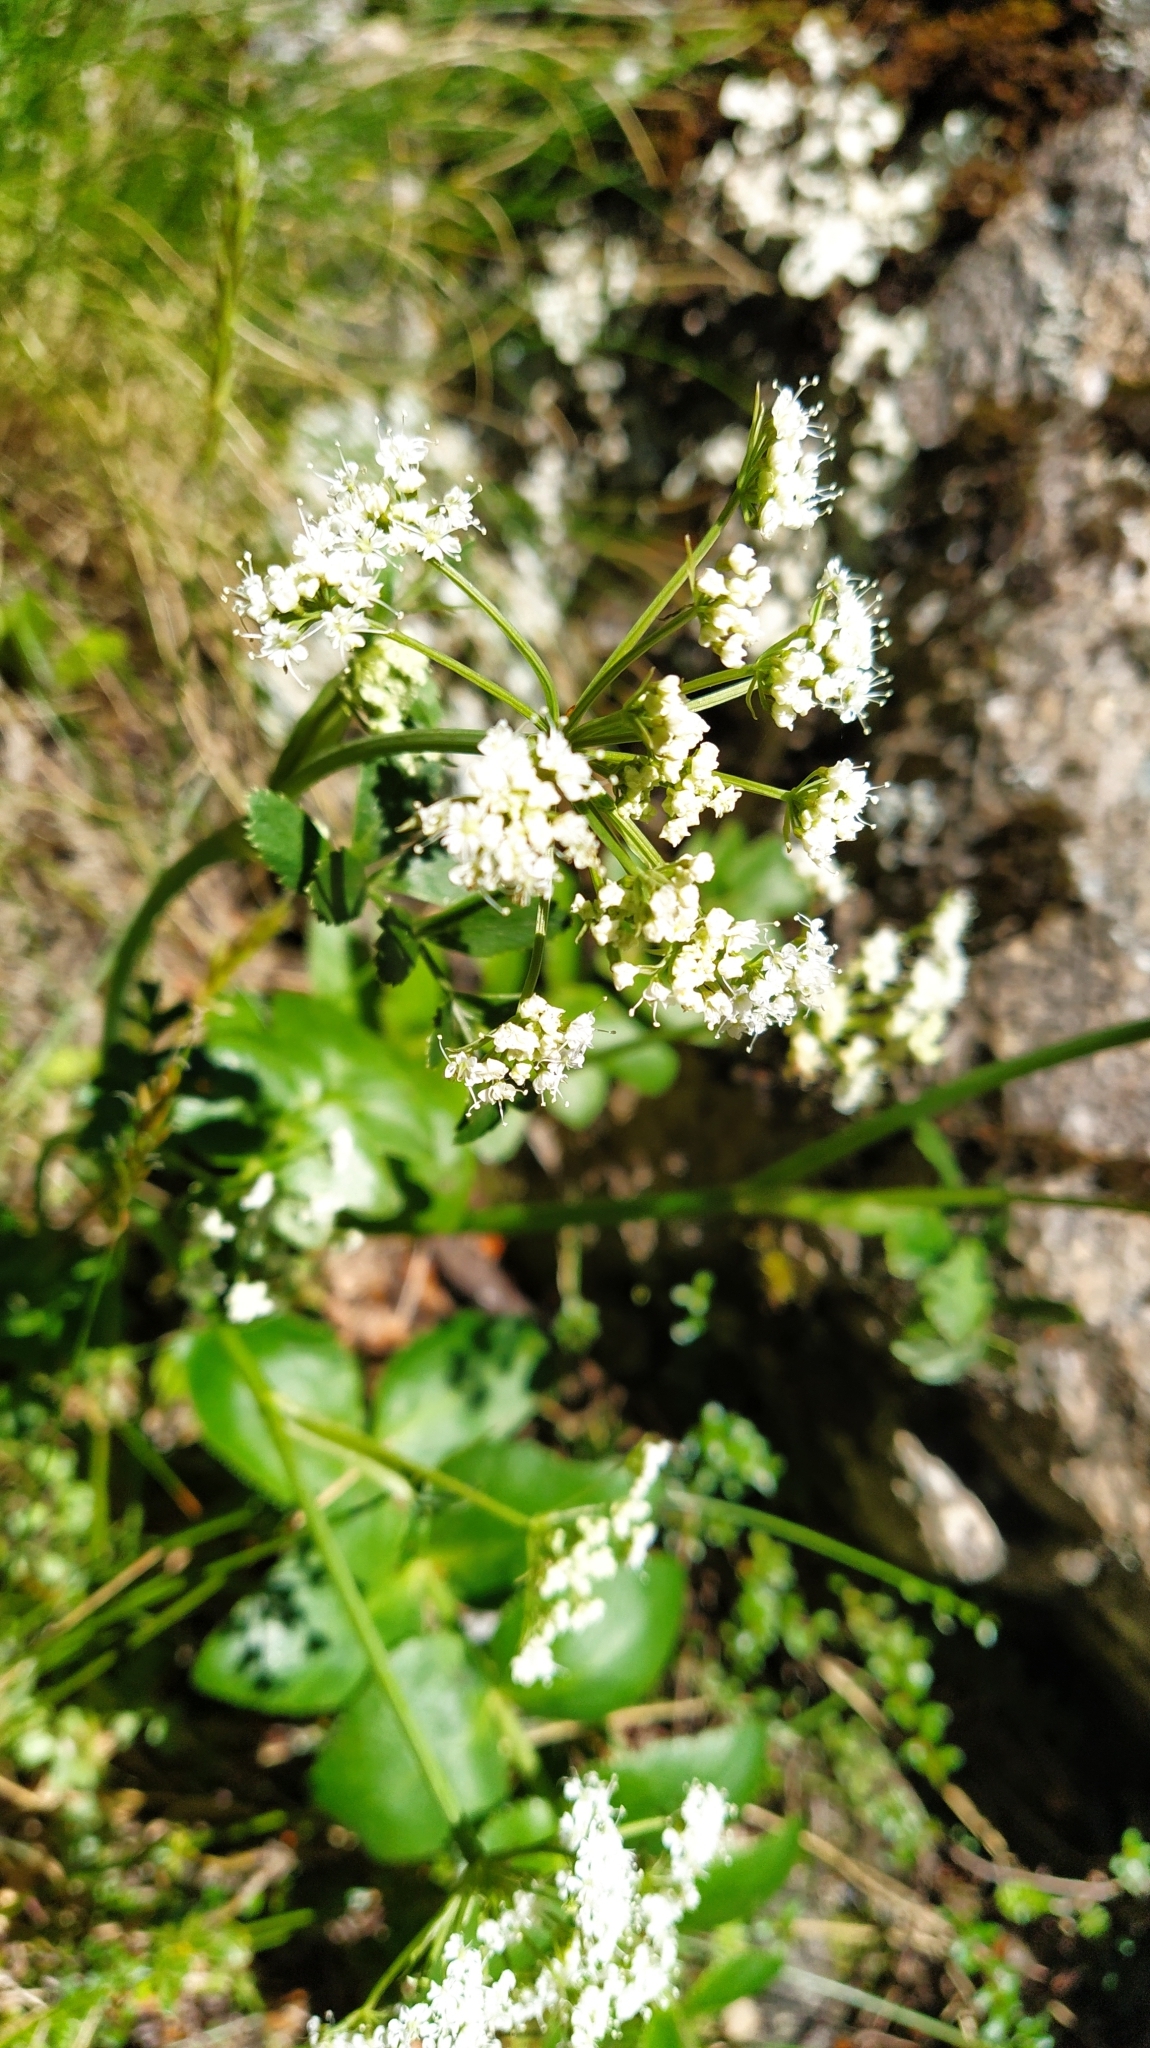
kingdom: Plantae
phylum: Tracheophyta
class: Magnoliopsida
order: Apiales
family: Apiaceae
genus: Gingidia
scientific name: Gingidia montana
